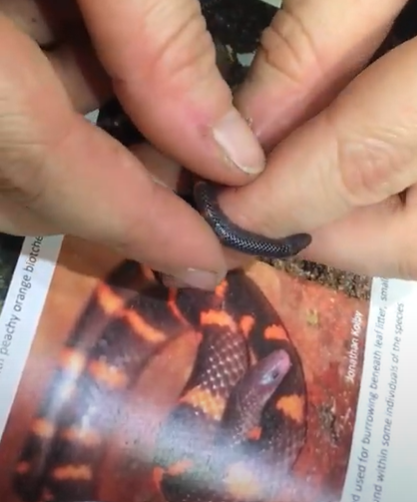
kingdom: Animalia
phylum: Chordata
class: Squamata
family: Colubridae
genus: Geophis
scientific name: Geophis nephodrymus
